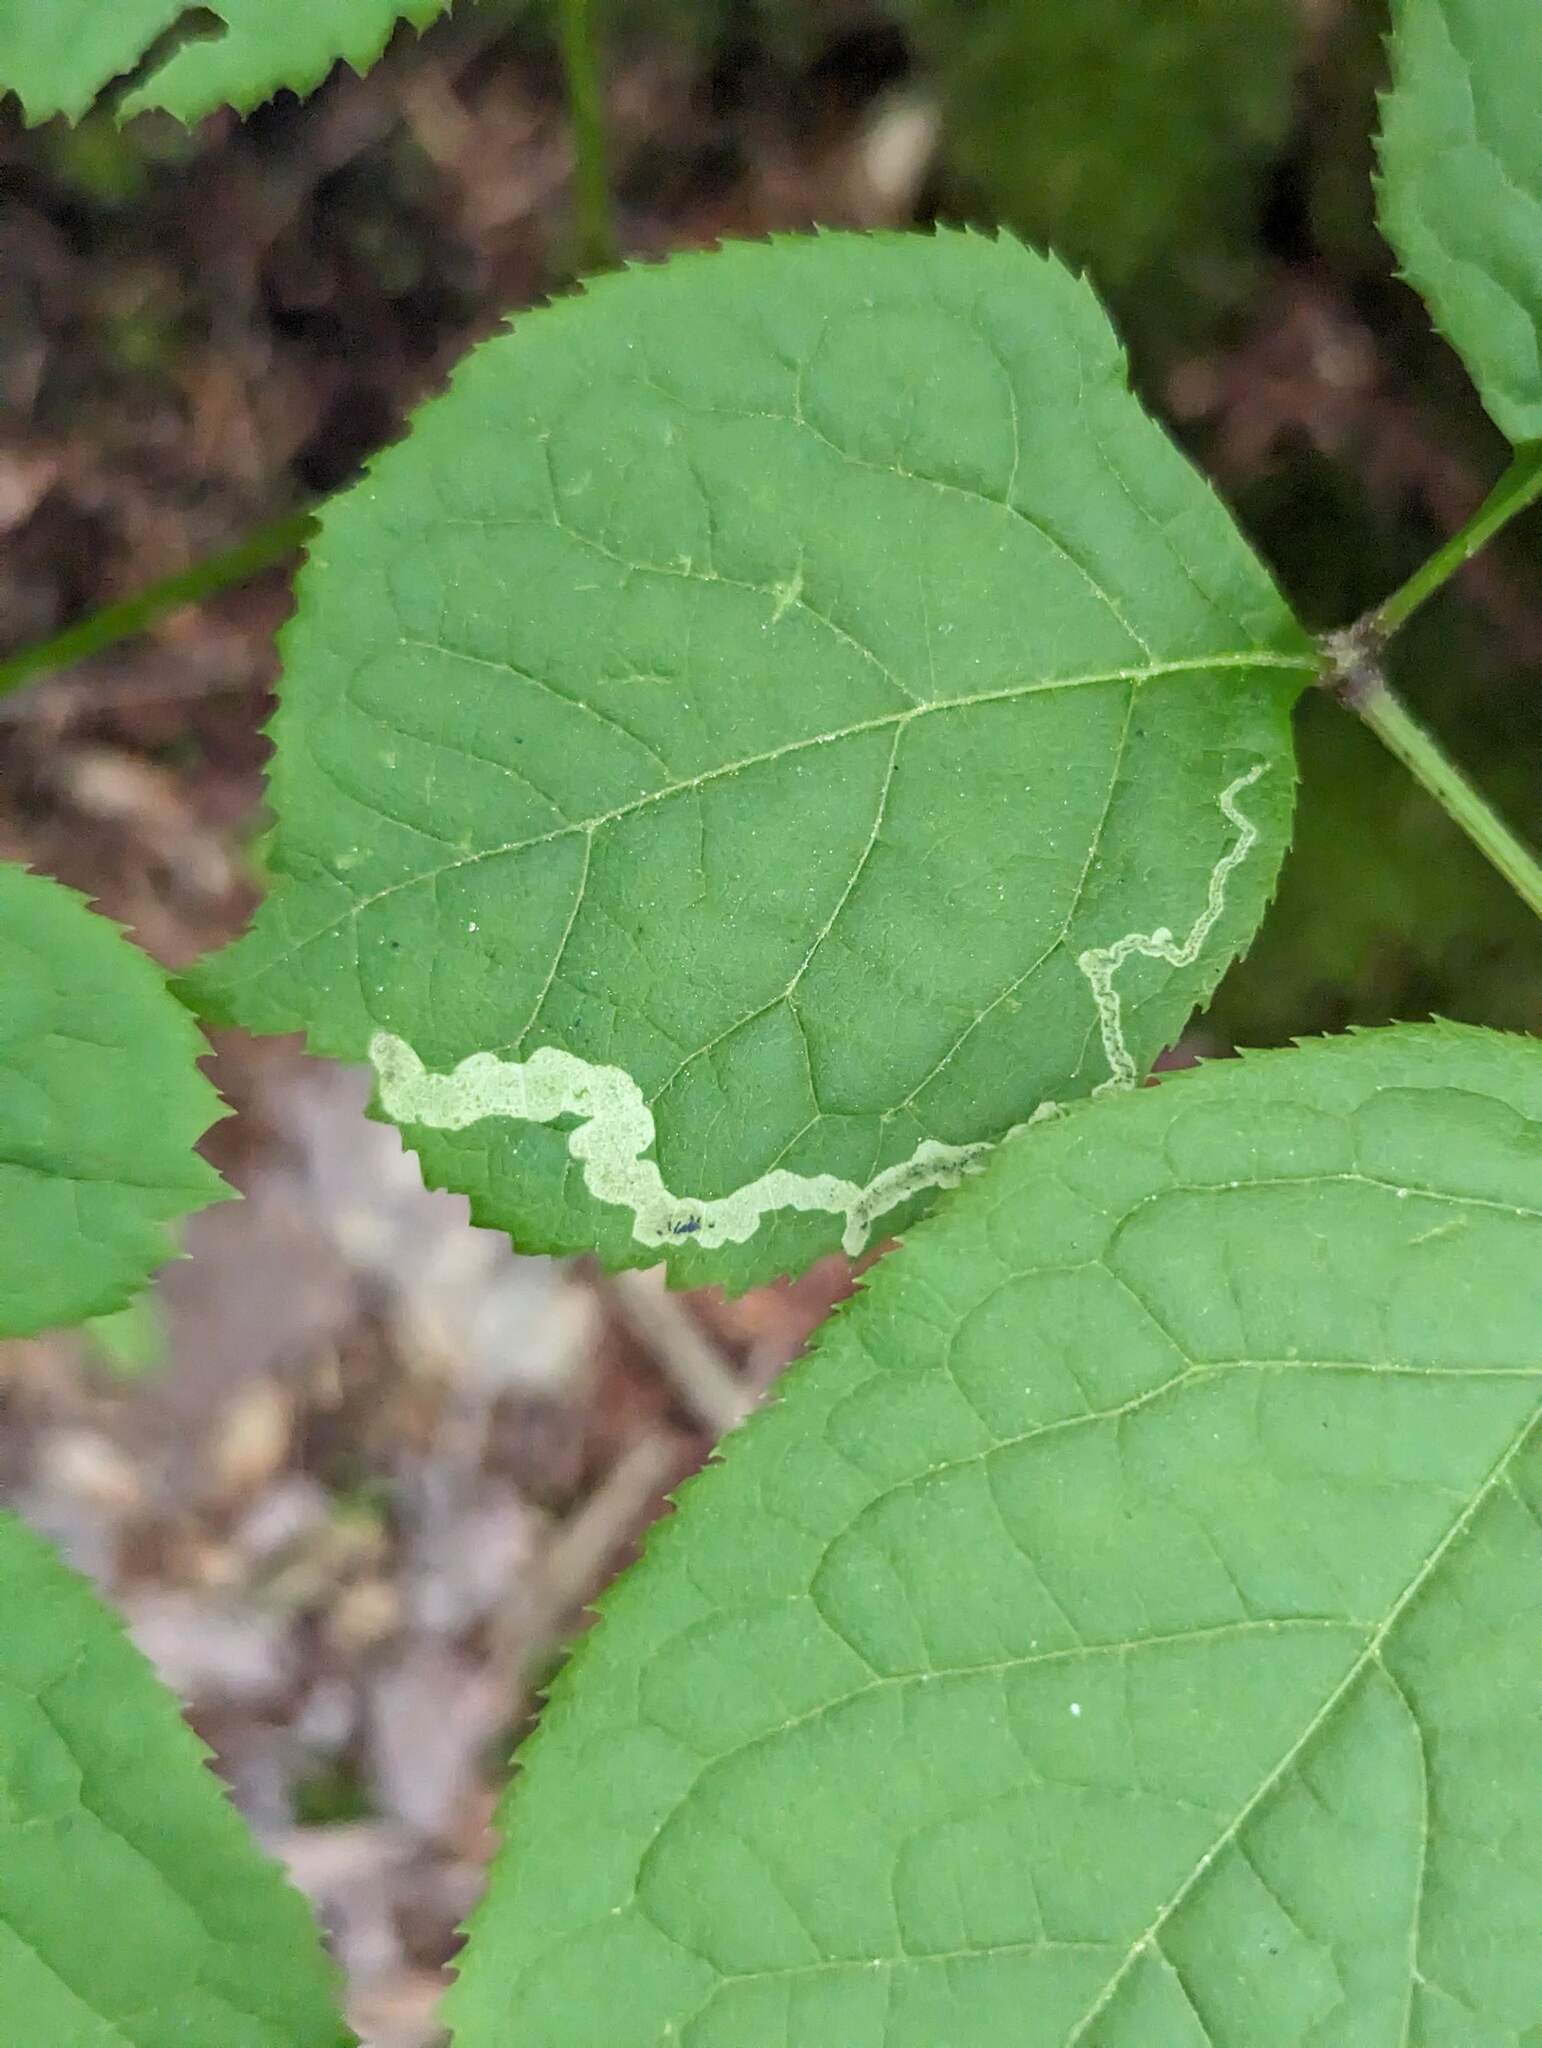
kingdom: Animalia
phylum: Arthropoda
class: Insecta
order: Diptera
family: Agromyzidae
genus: Phytomyza
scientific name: Phytomyza aralivora
